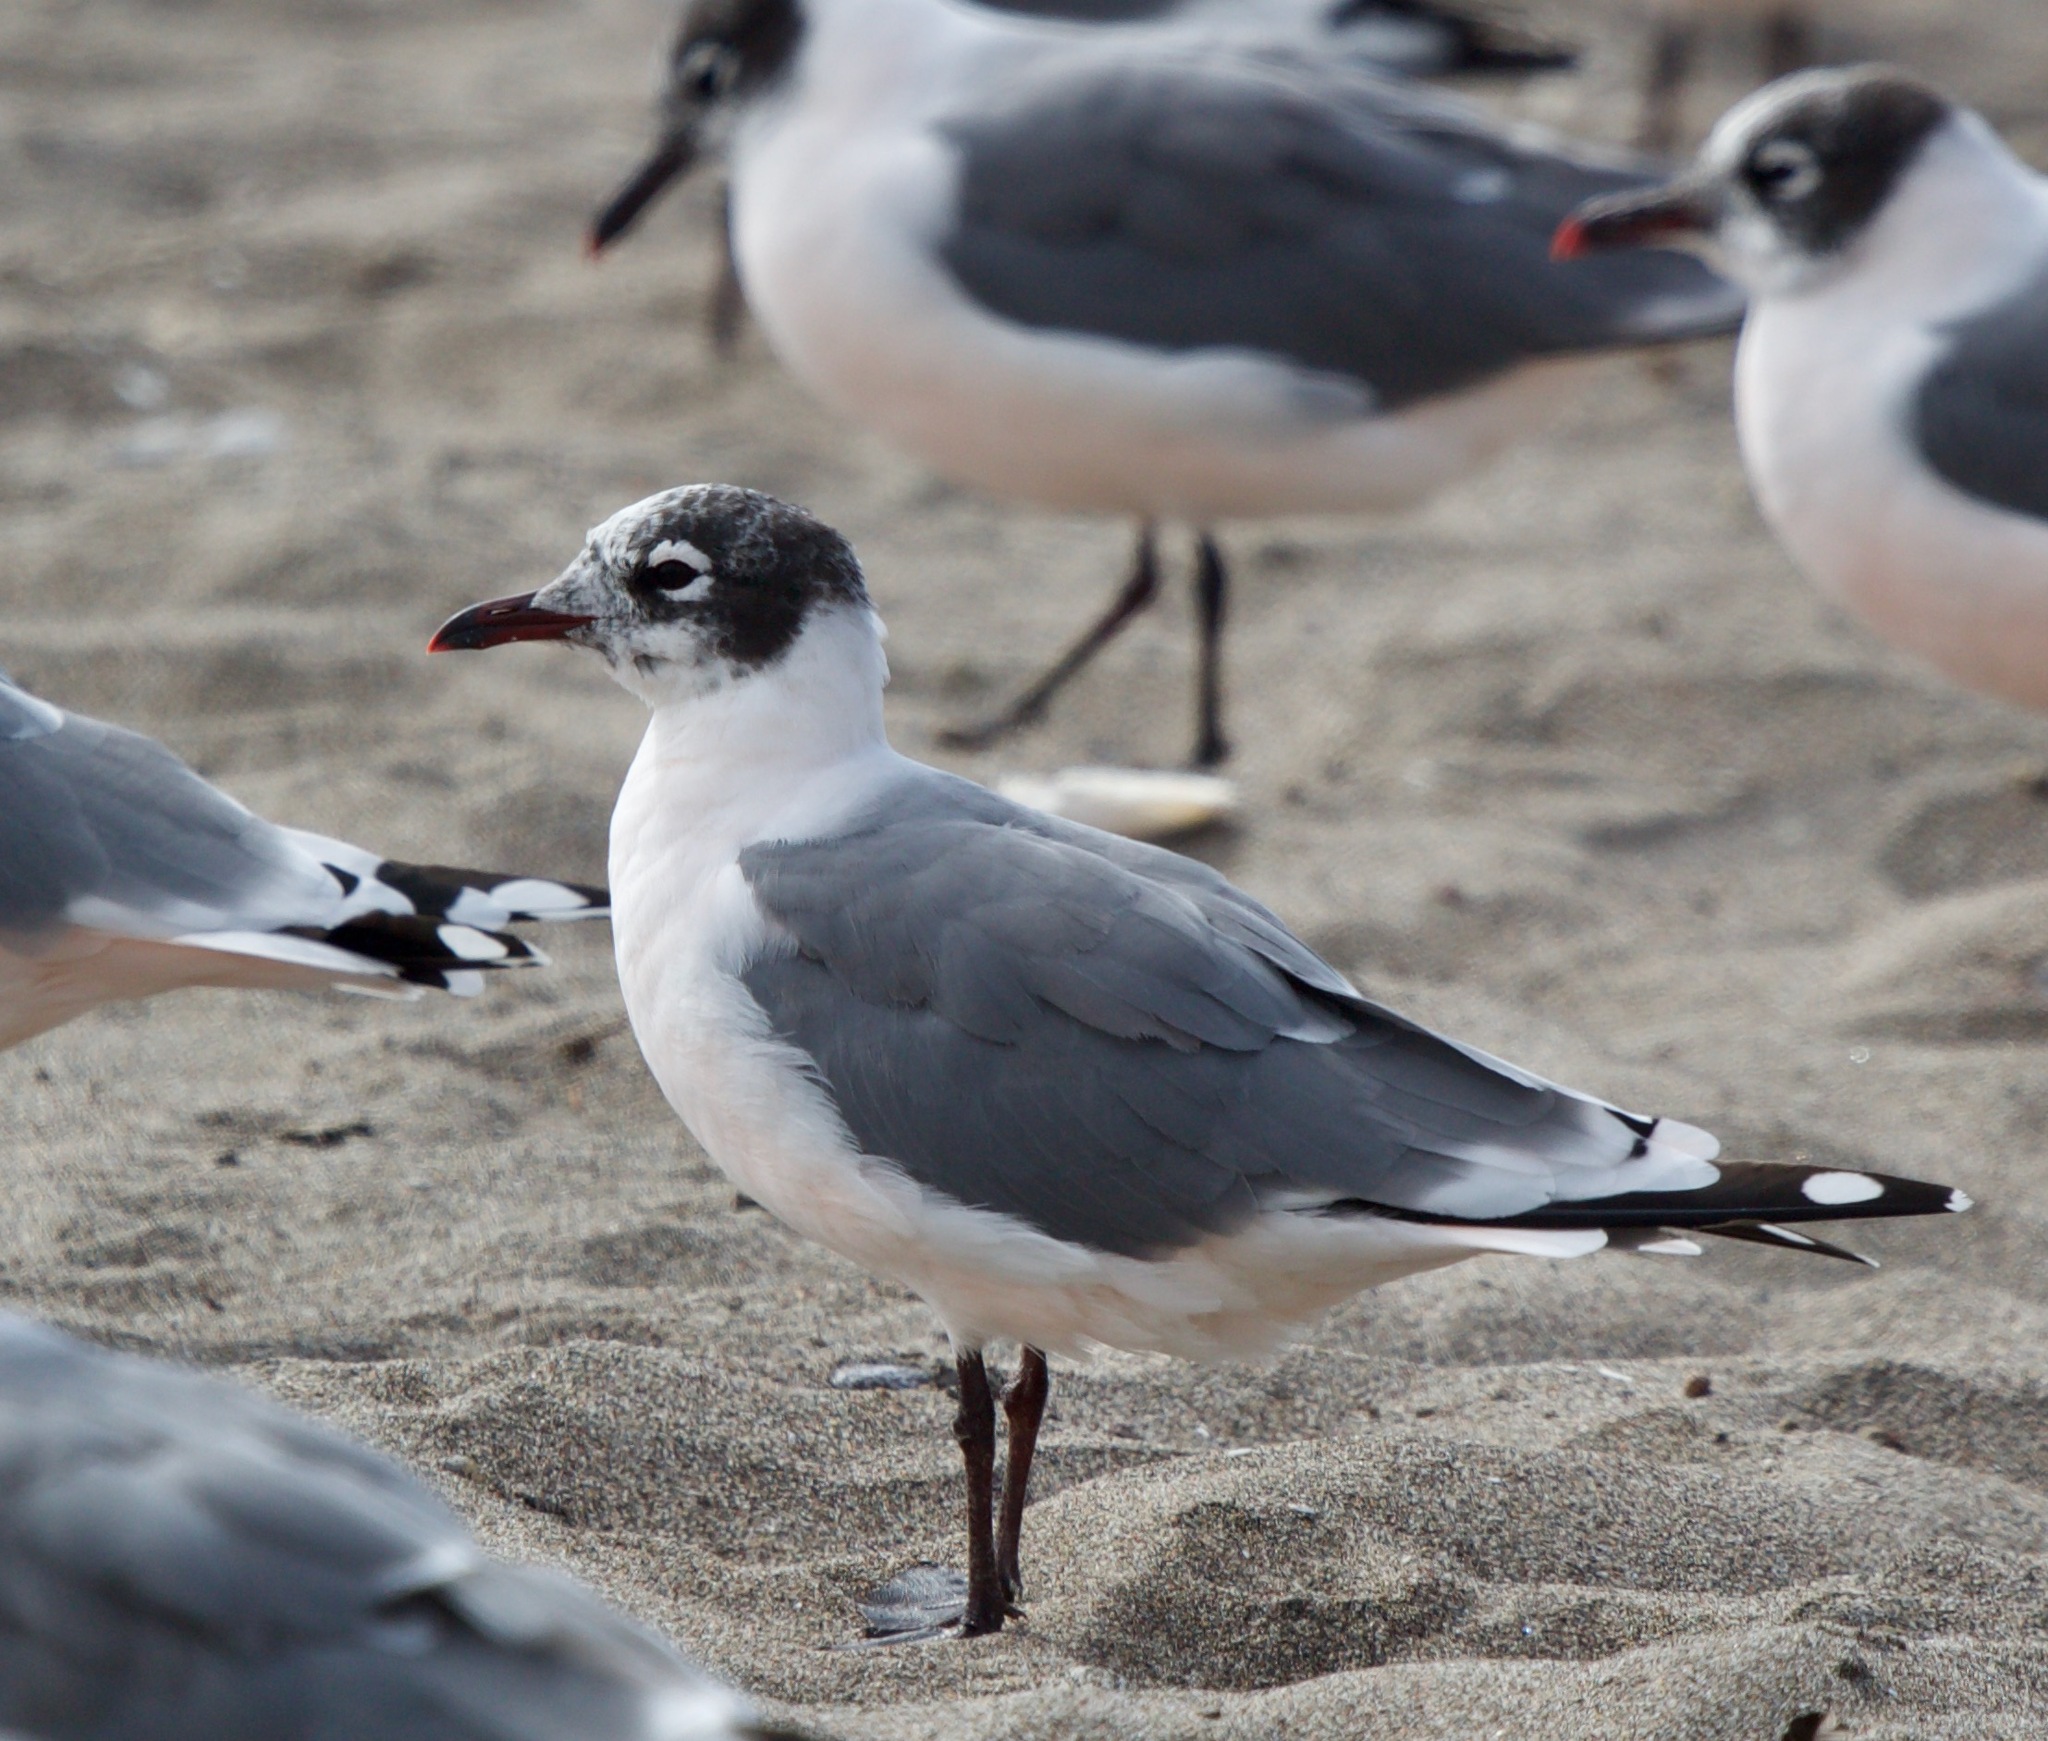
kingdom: Animalia
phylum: Chordata
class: Aves
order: Charadriiformes
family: Laridae
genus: Leucophaeus
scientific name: Leucophaeus pipixcan
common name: Franklin's gull
